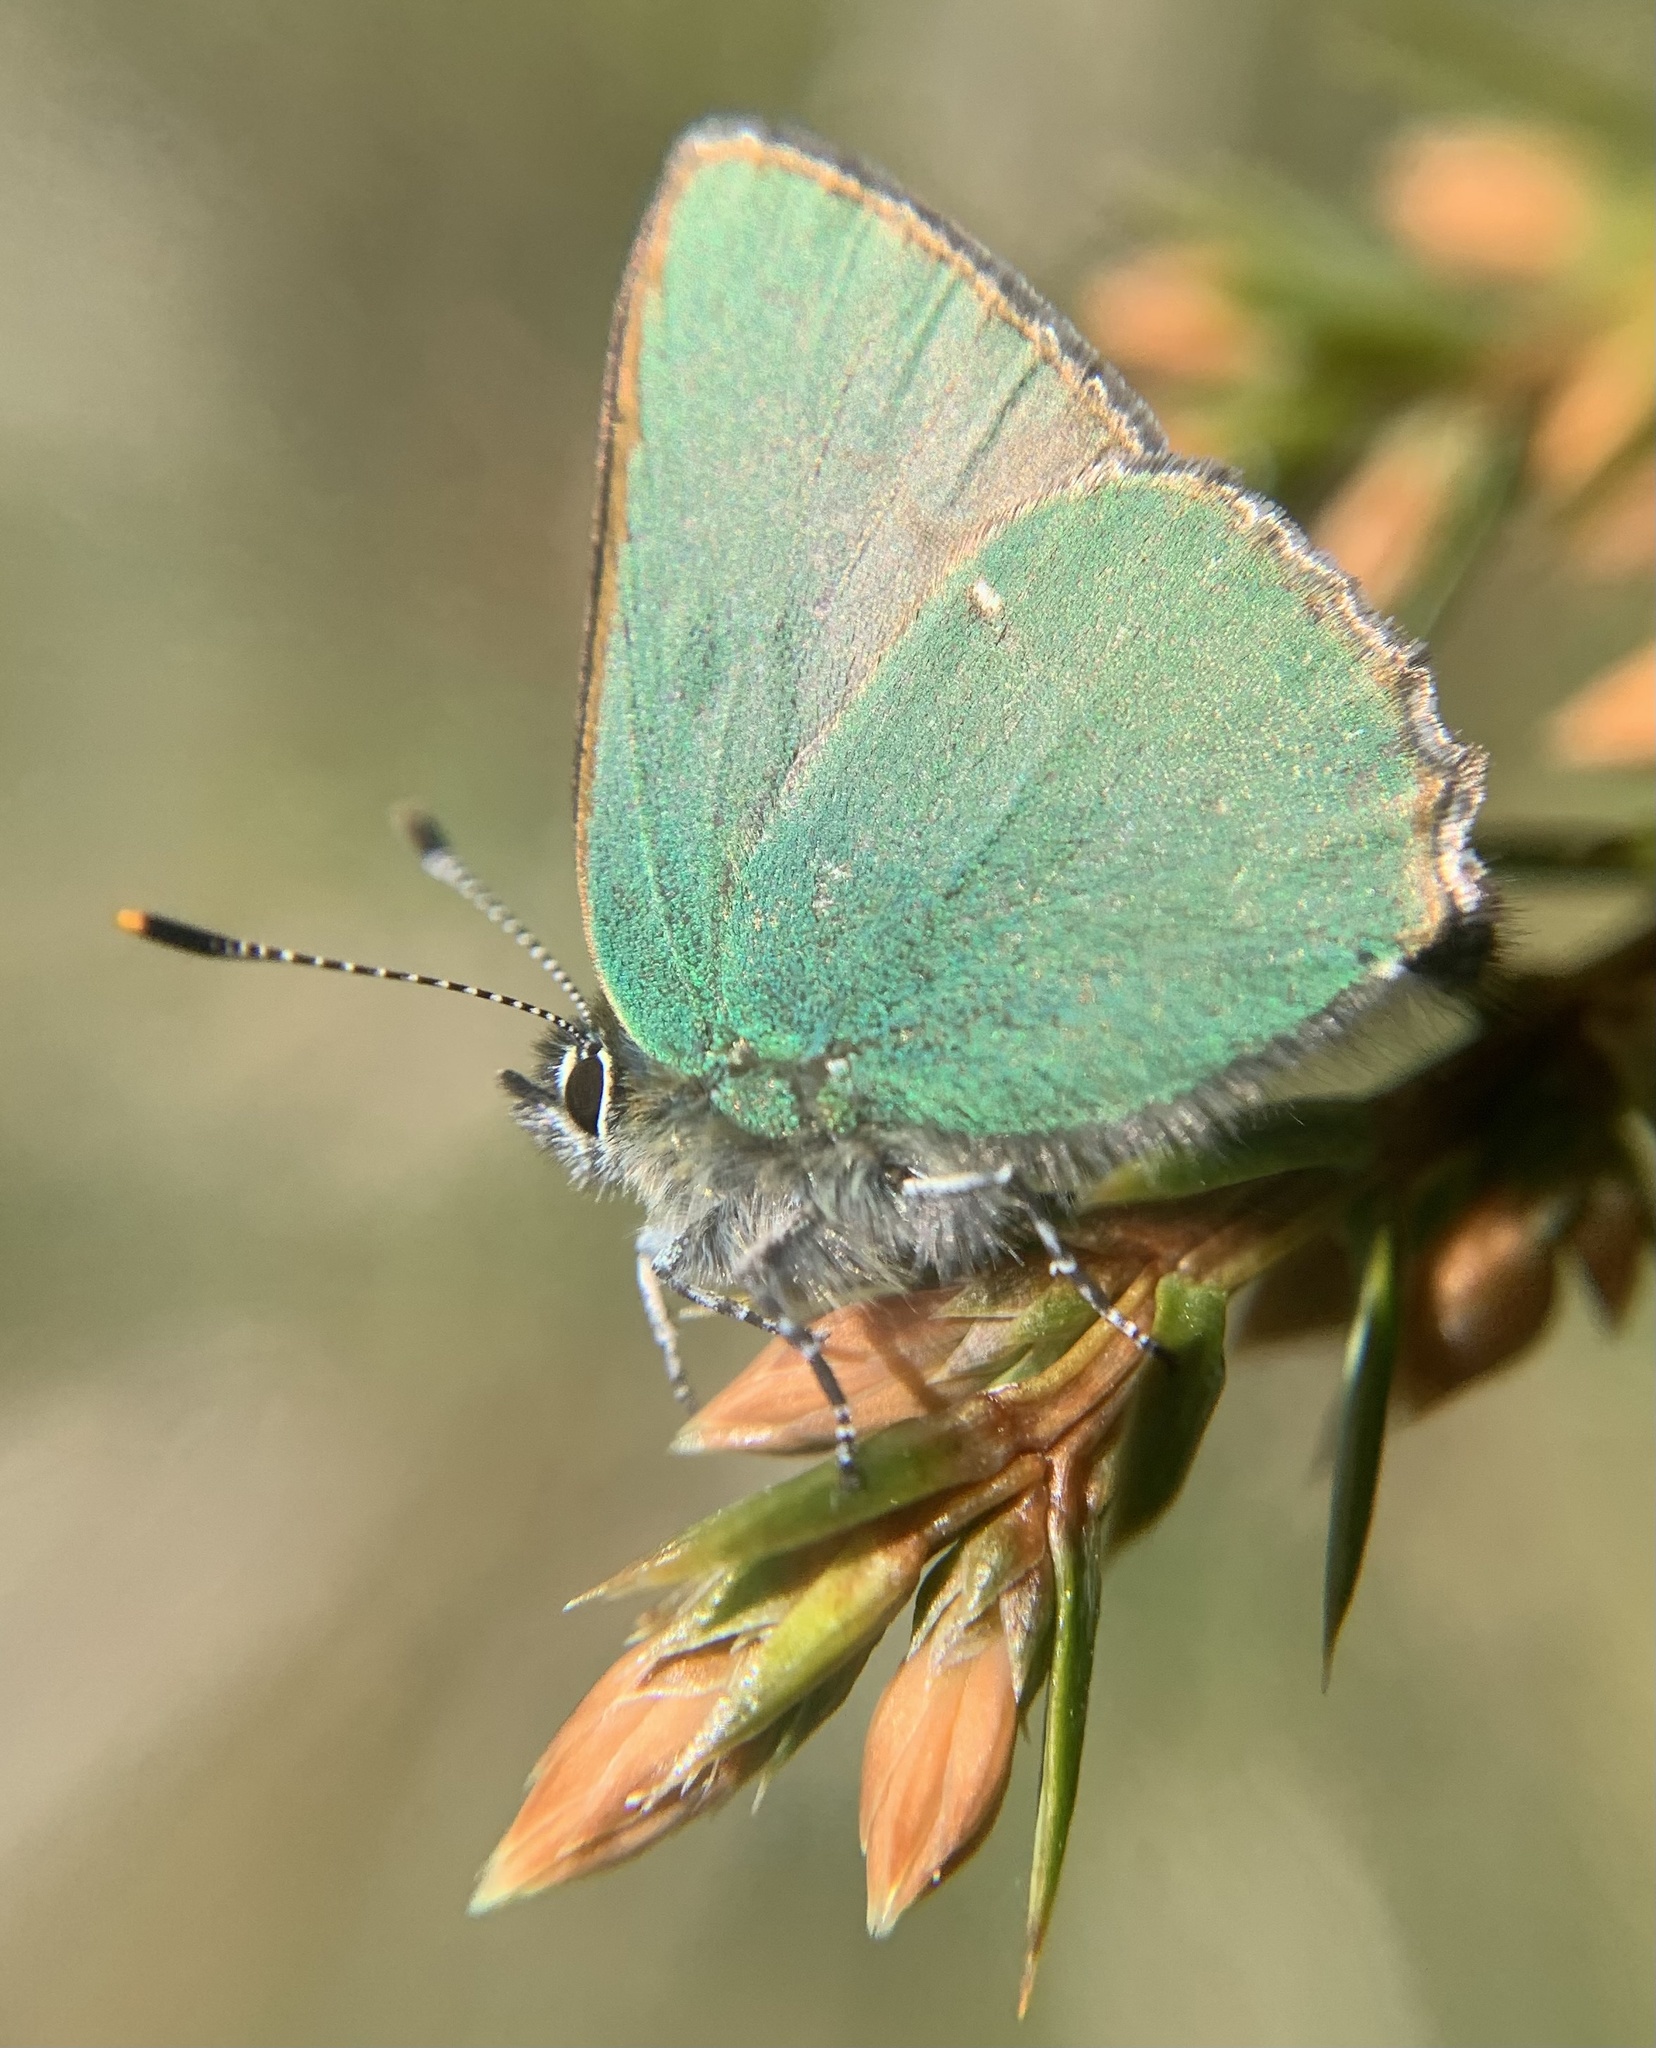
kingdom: Animalia
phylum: Arthropoda
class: Insecta
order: Lepidoptera
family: Lycaenidae
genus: Callophrys
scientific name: Callophrys rubi
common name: Green hairstreak
